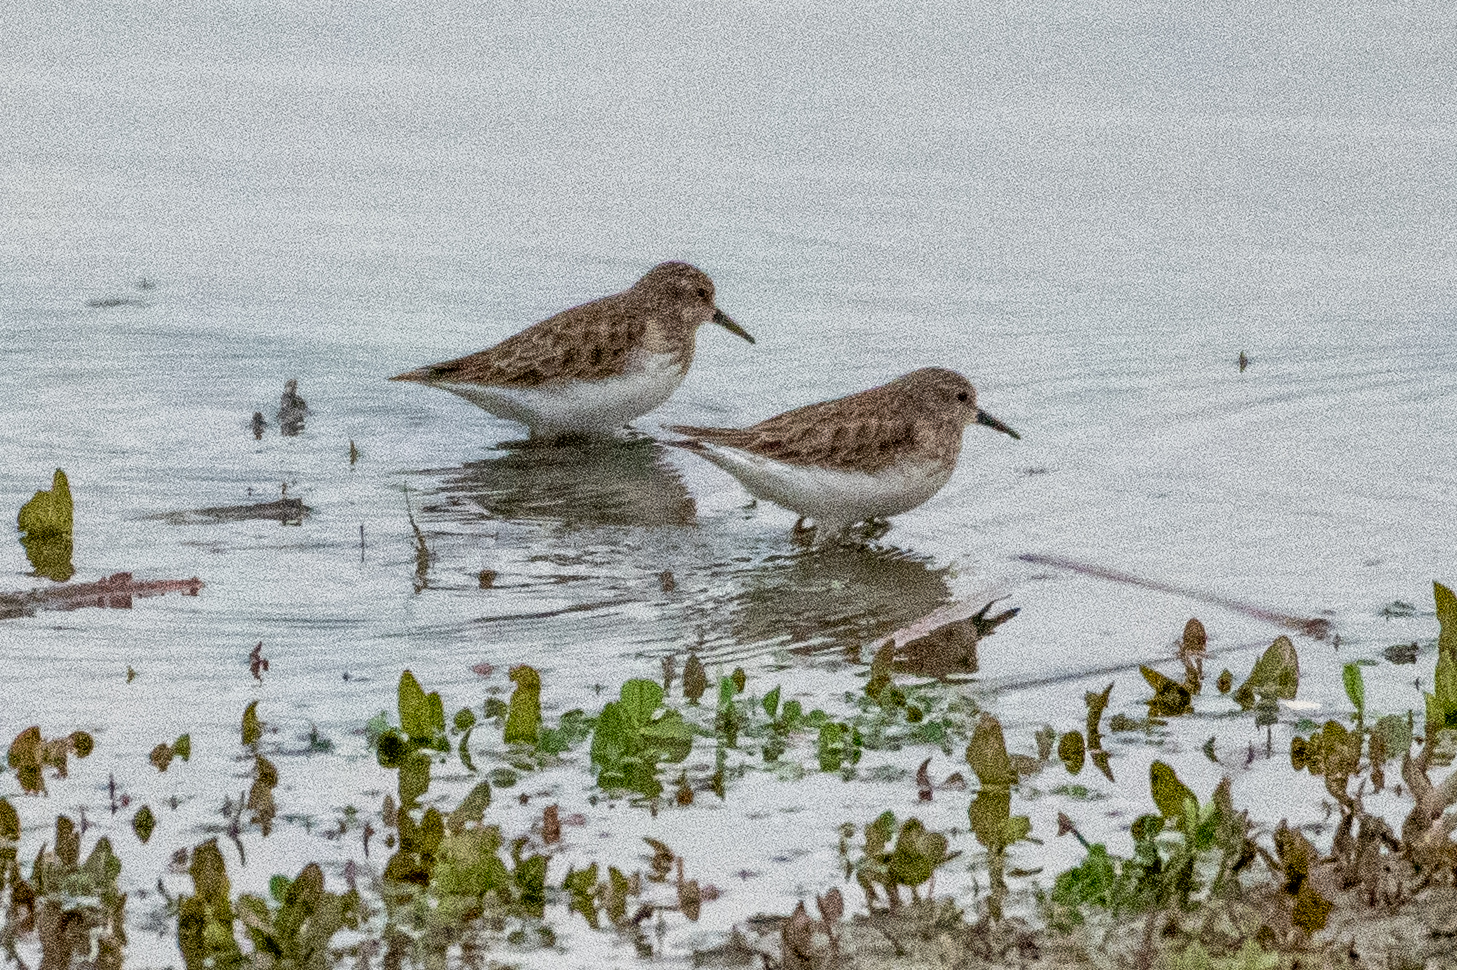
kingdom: Animalia
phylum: Chordata
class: Aves
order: Charadriiformes
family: Scolopacidae
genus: Calidris
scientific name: Calidris minutilla
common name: Least sandpiper
